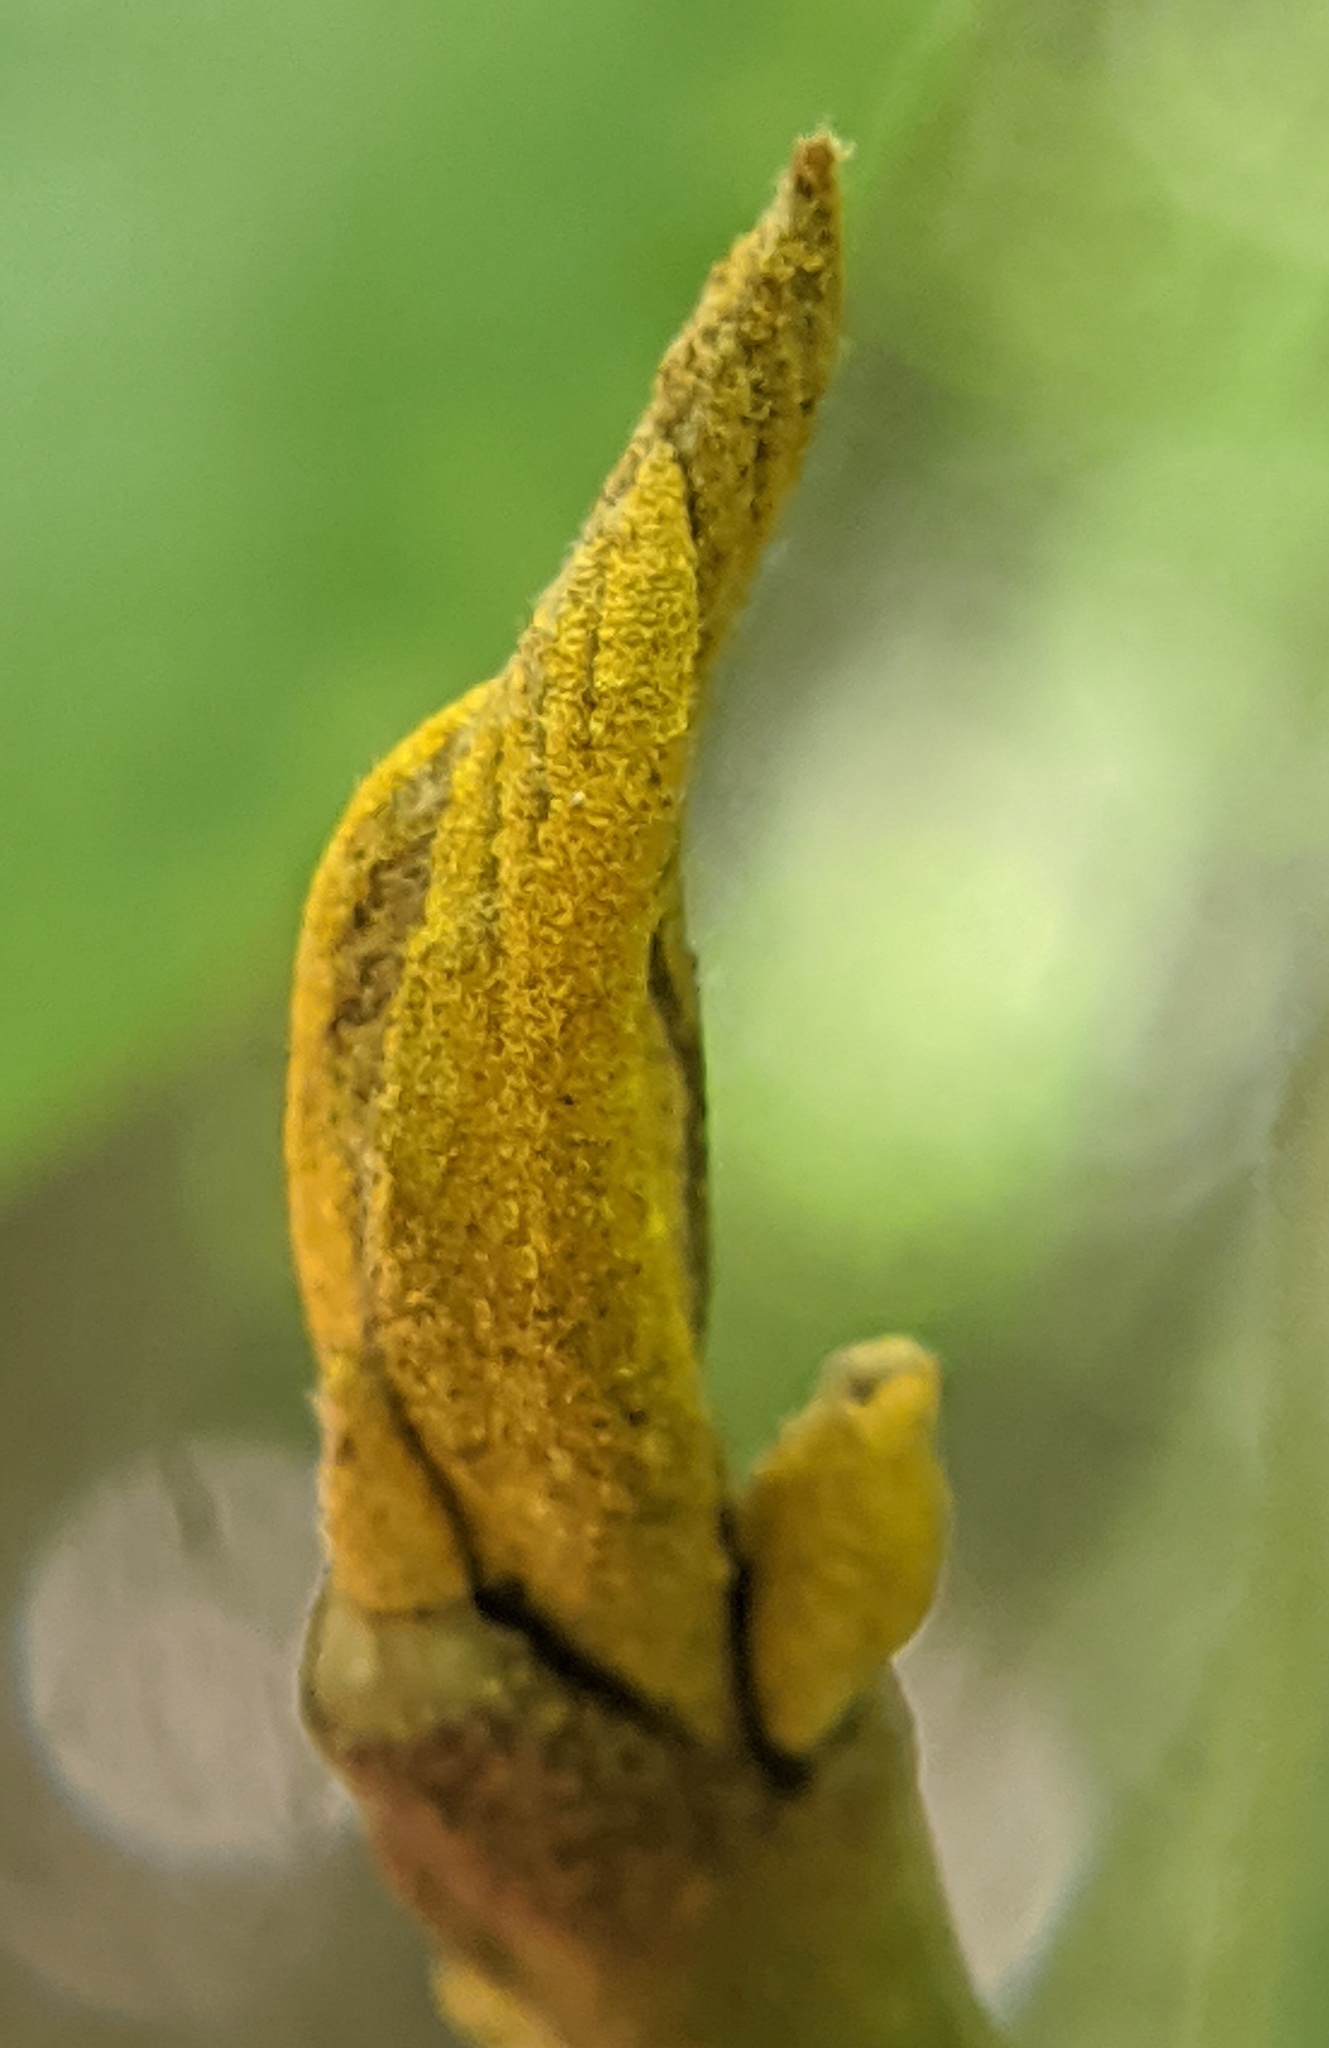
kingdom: Plantae
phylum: Tracheophyta
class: Magnoliopsida
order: Fagales
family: Juglandaceae
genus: Carya
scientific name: Carya cordiformis
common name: Bitternut hickory
